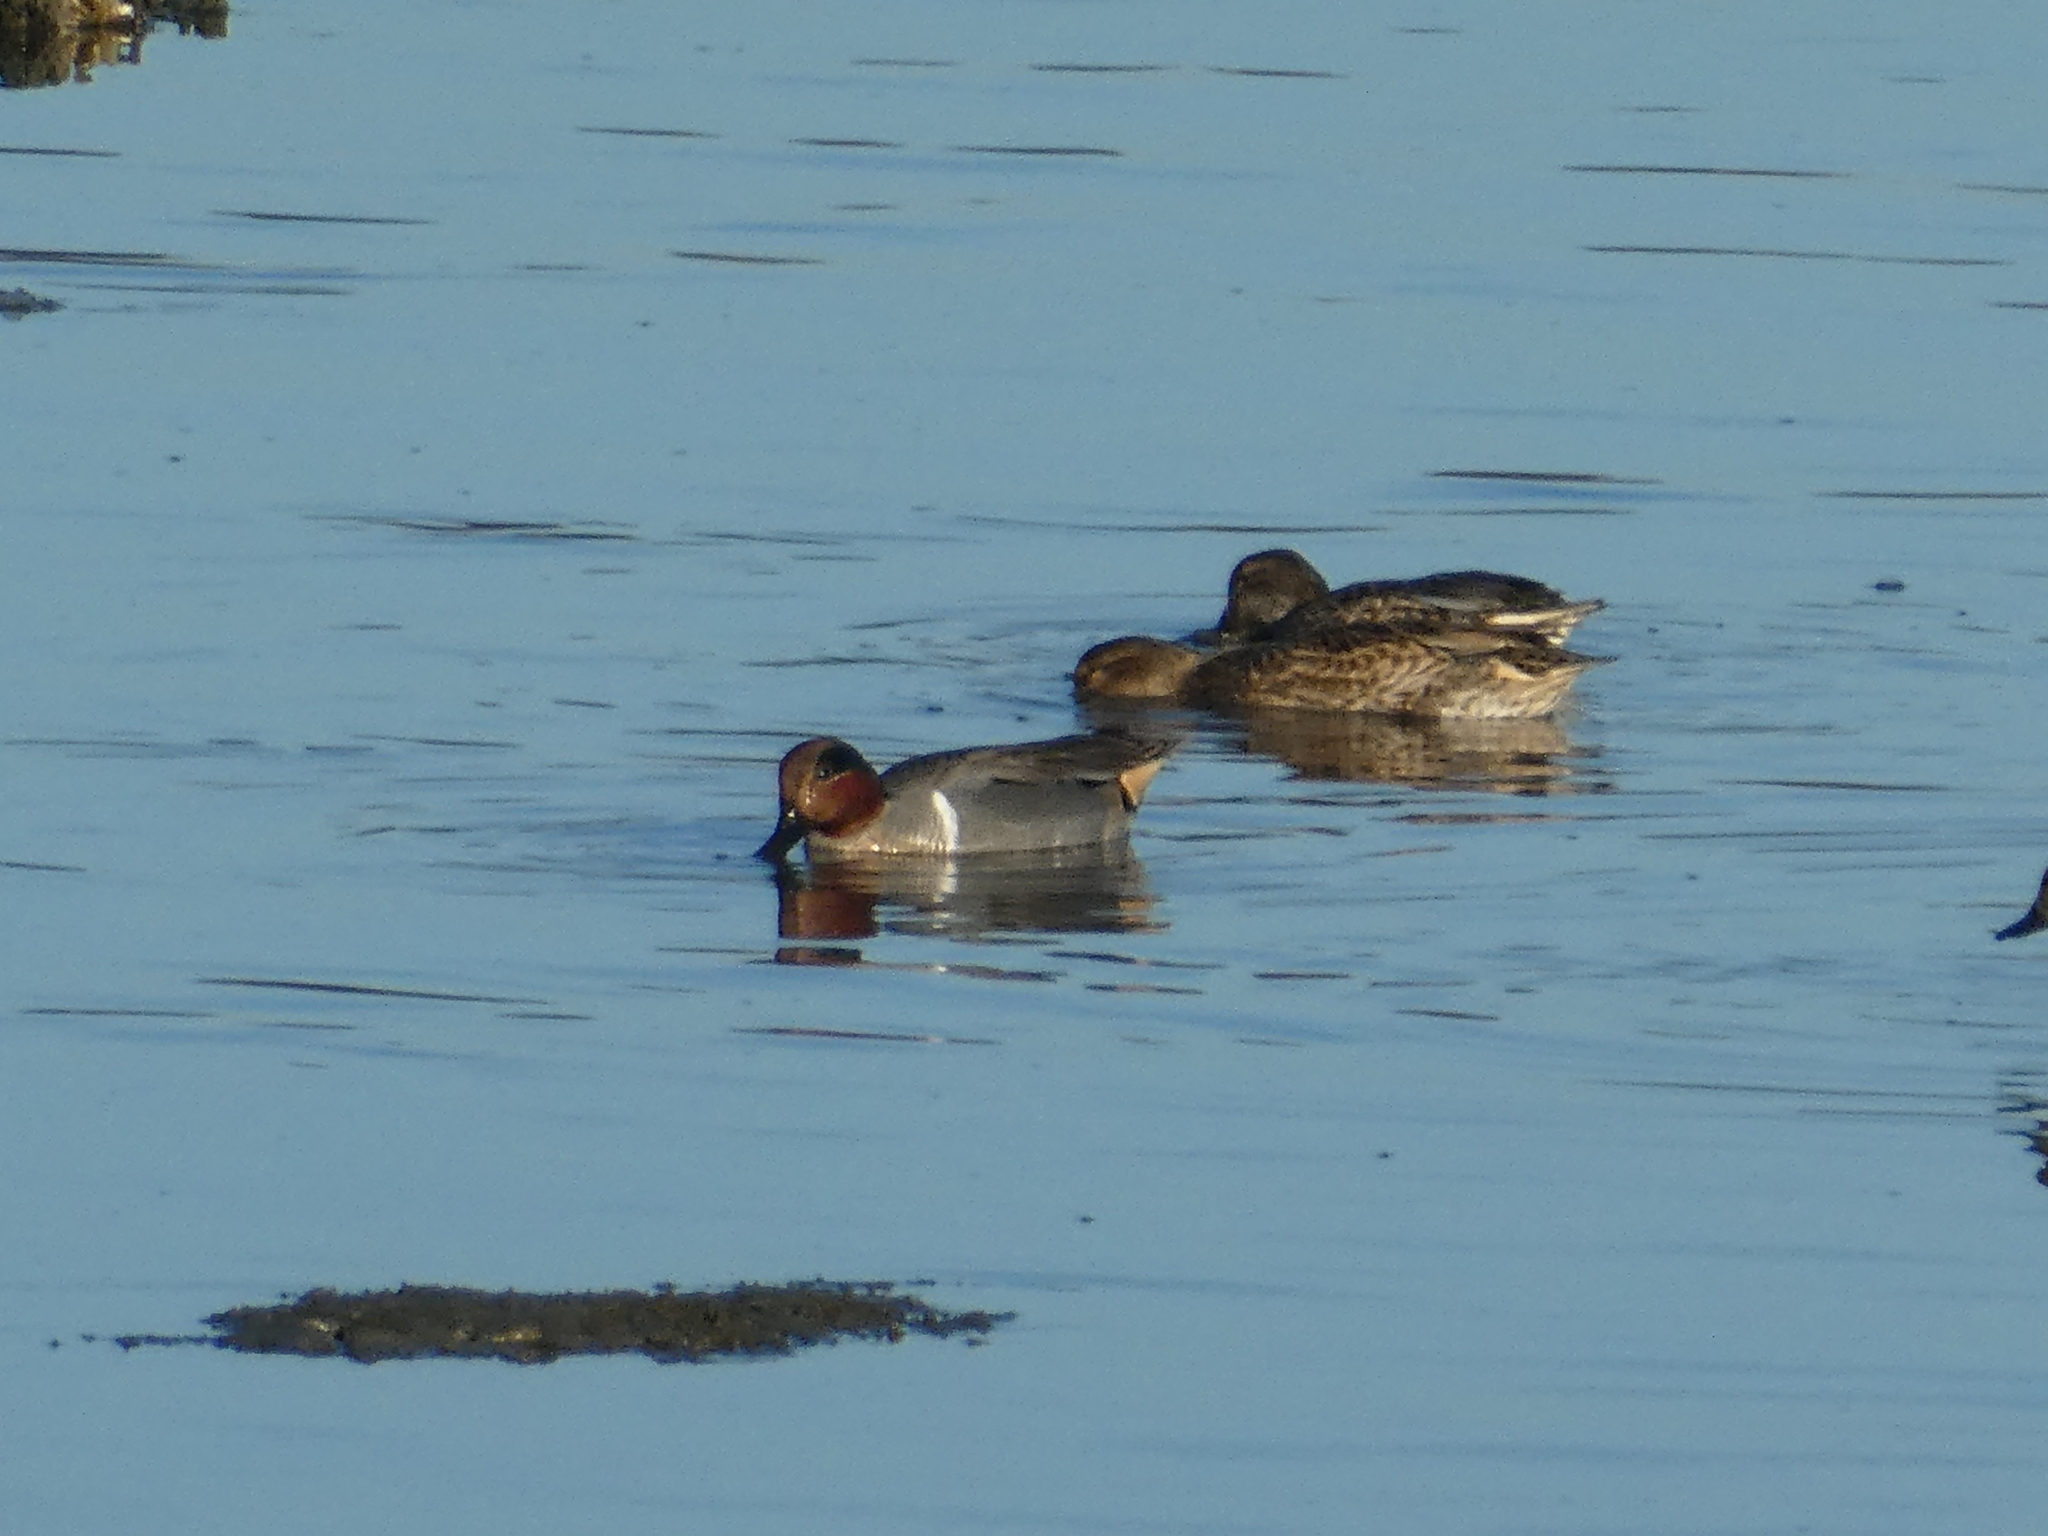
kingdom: Animalia
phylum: Chordata
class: Aves
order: Anseriformes
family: Anatidae
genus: Anas
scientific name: Anas crecca
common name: Eurasian teal
